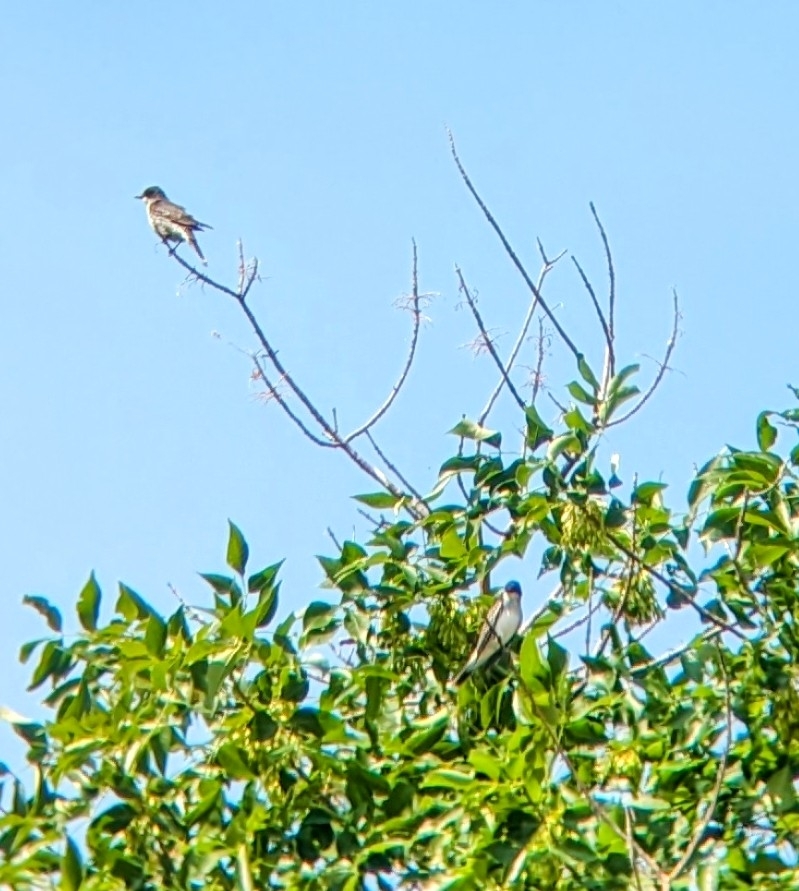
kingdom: Animalia
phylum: Chordata
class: Aves
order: Passeriformes
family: Tyrannidae
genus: Tyrannus
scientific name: Tyrannus tyrannus
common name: Eastern kingbird
